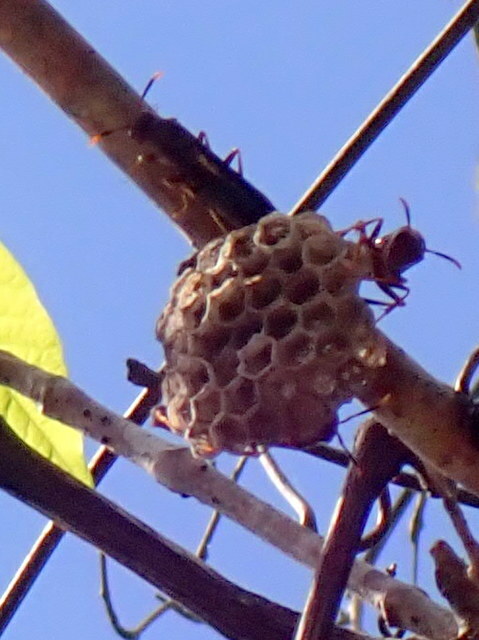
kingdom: Animalia
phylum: Arthropoda
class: Insecta
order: Hymenoptera
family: Eumenidae
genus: Polistes
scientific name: Polistes annularis
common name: Ringed paper wasp
